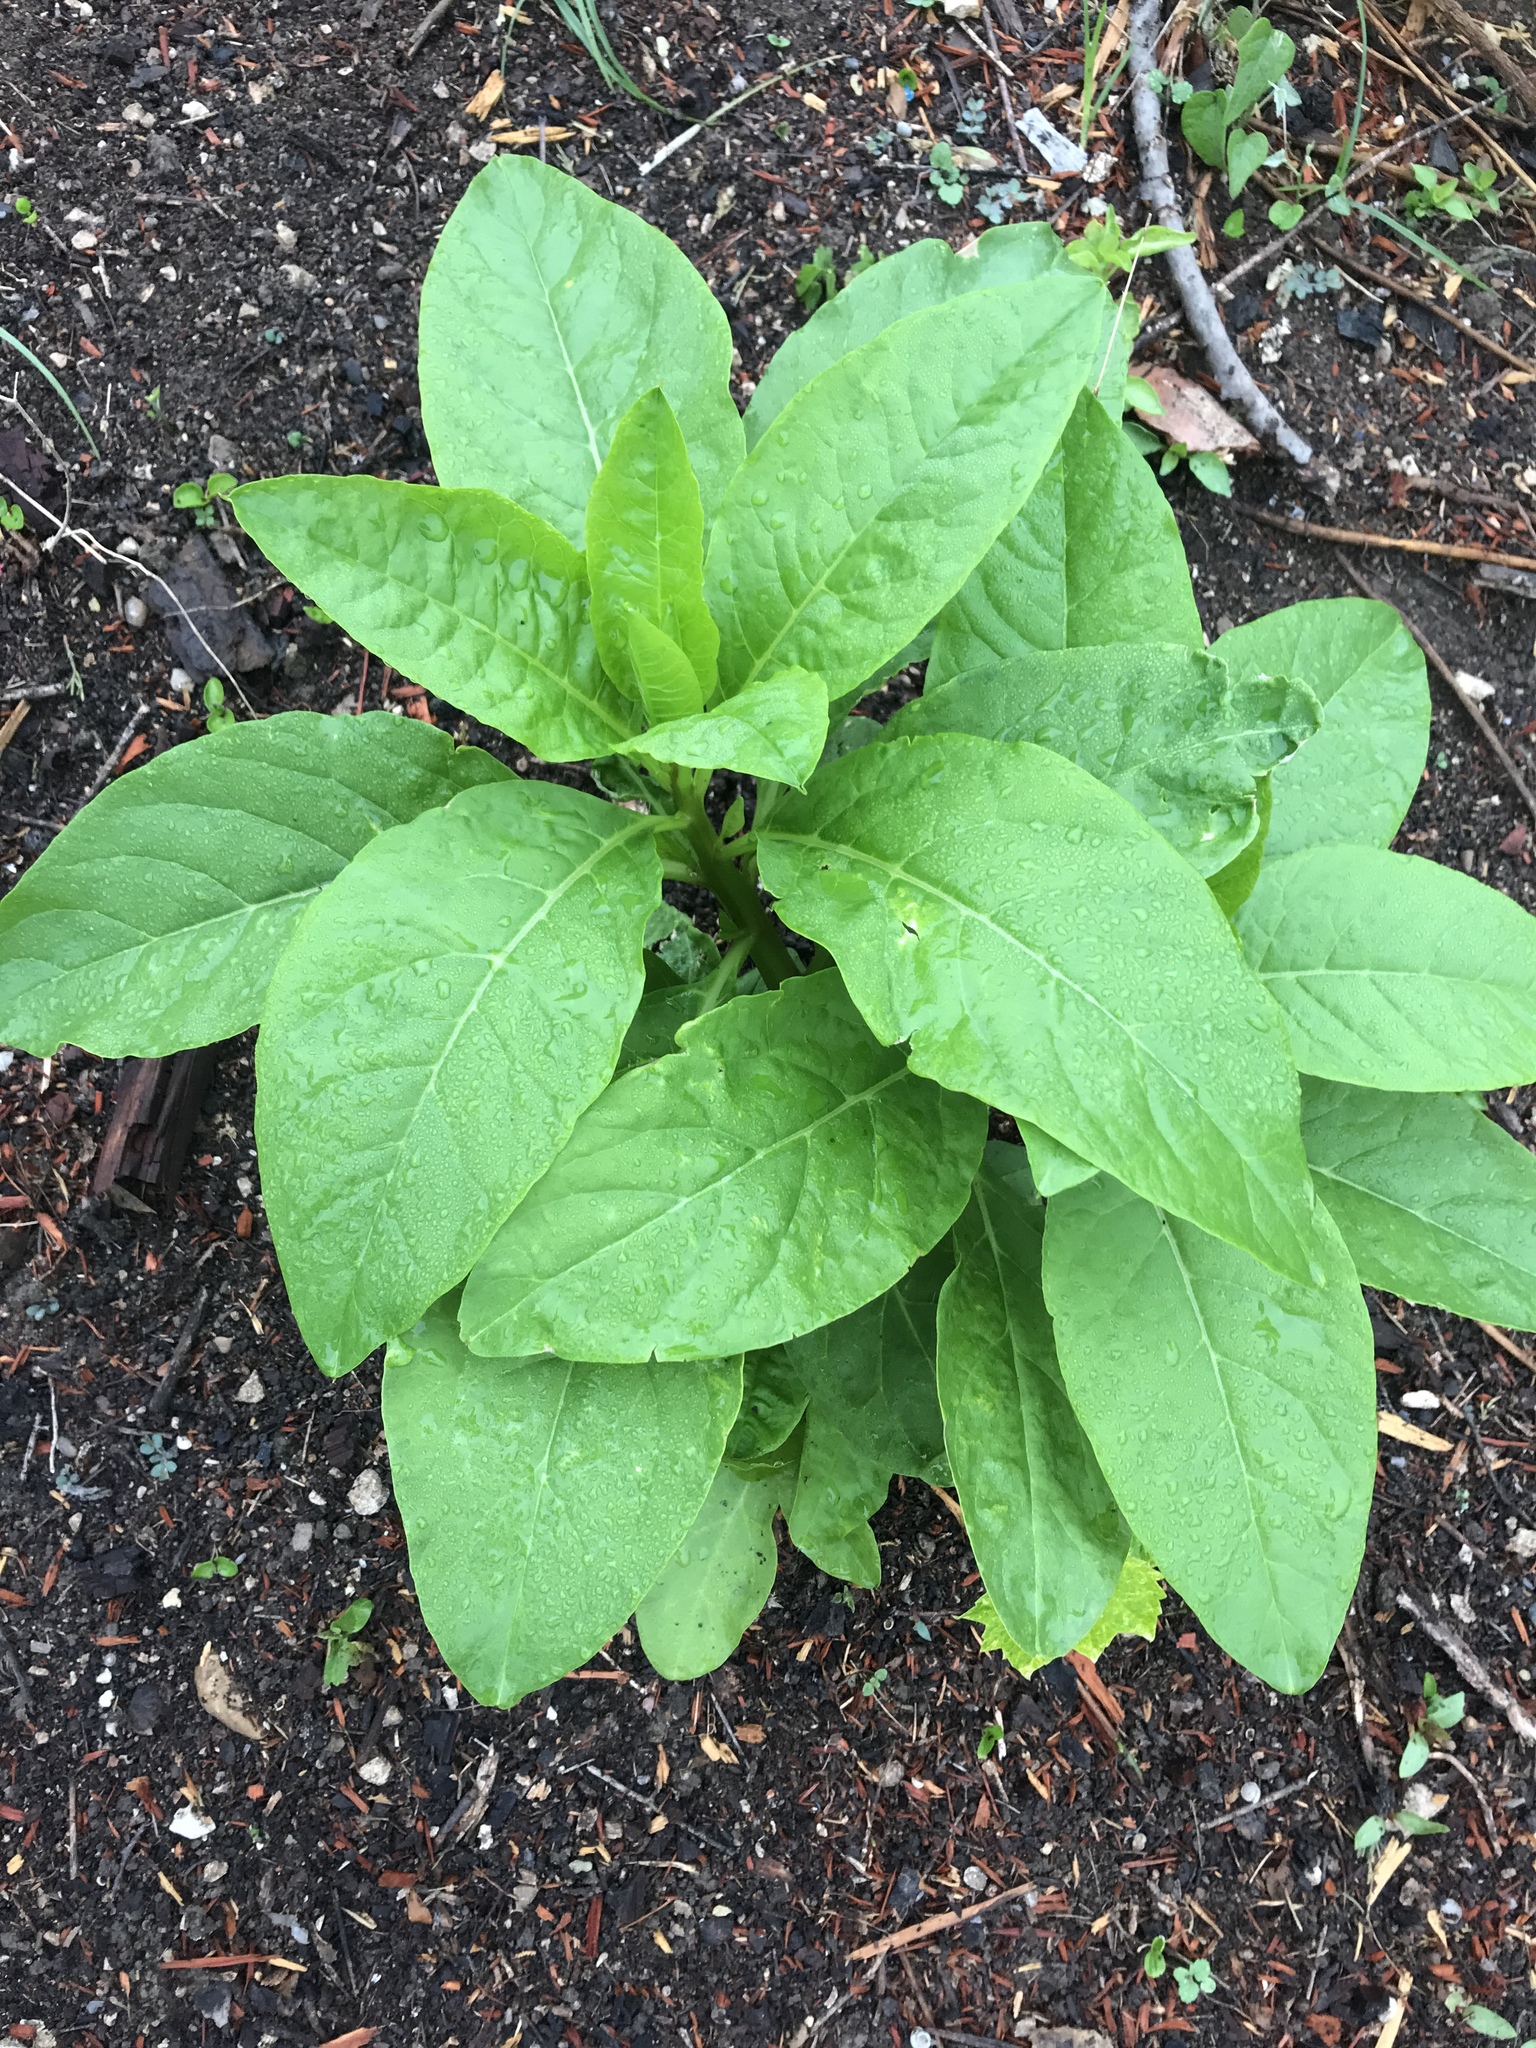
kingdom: Plantae
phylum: Tracheophyta
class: Magnoliopsida
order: Caryophyllales
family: Phytolaccaceae
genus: Phytolacca
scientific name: Phytolacca americana
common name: American pokeweed
